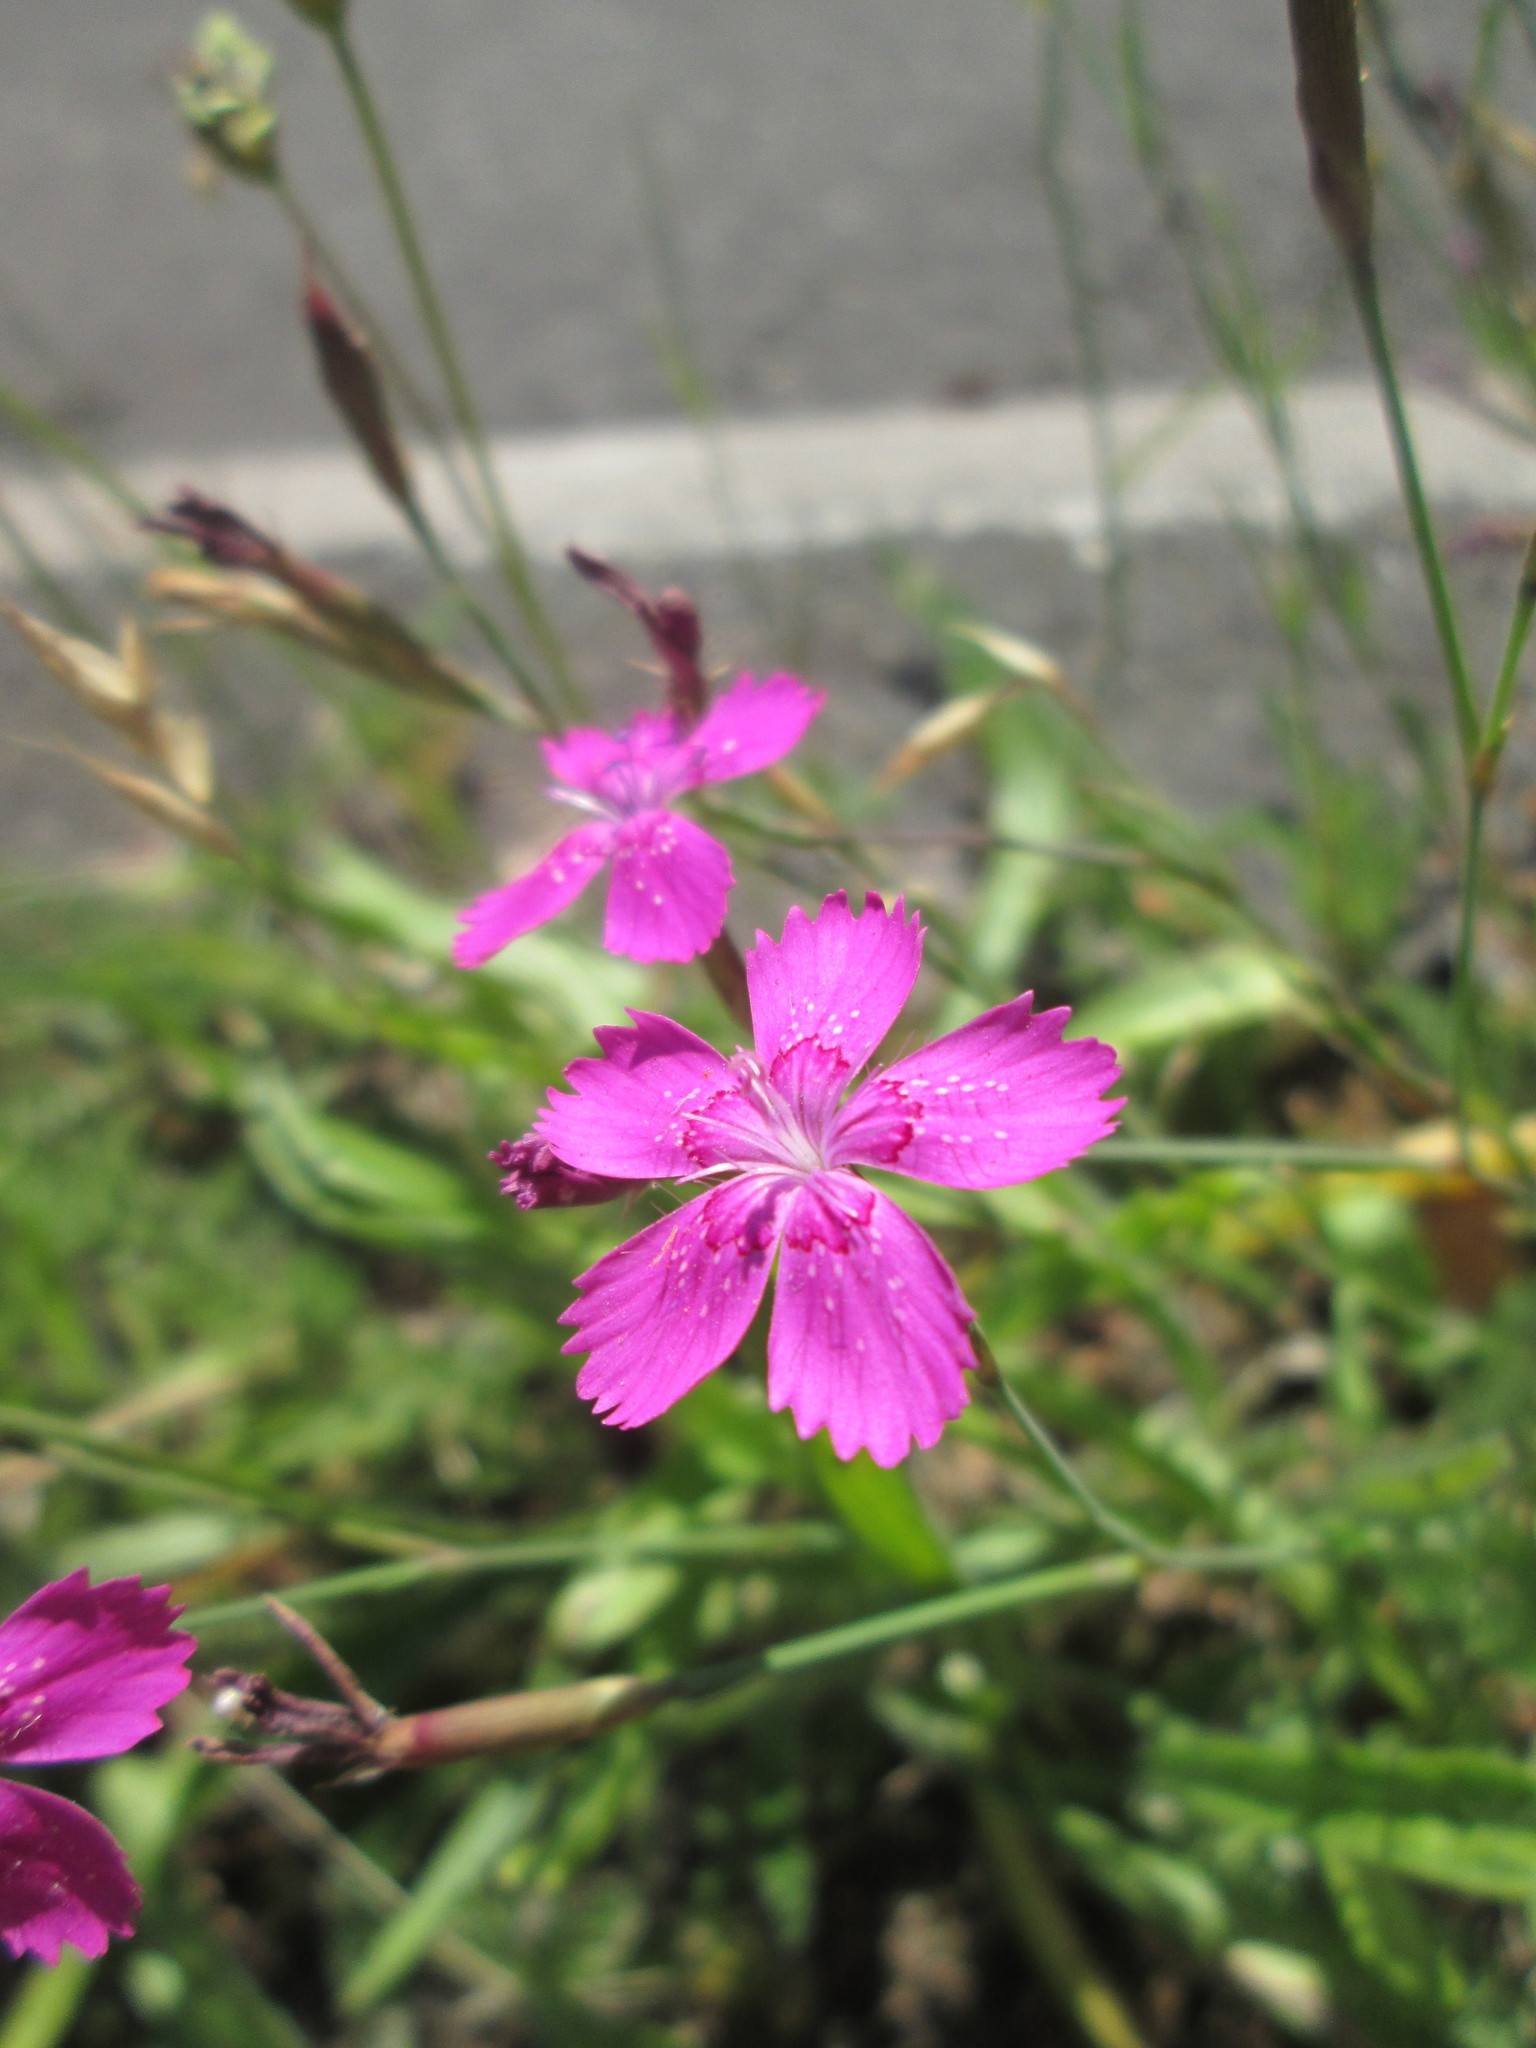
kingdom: Plantae
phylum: Tracheophyta
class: Magnoliopsida
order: Caryophyllales
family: Caryophyllaceae
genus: Dianthus
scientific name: Dianthus deltoides
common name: Maiden pink
